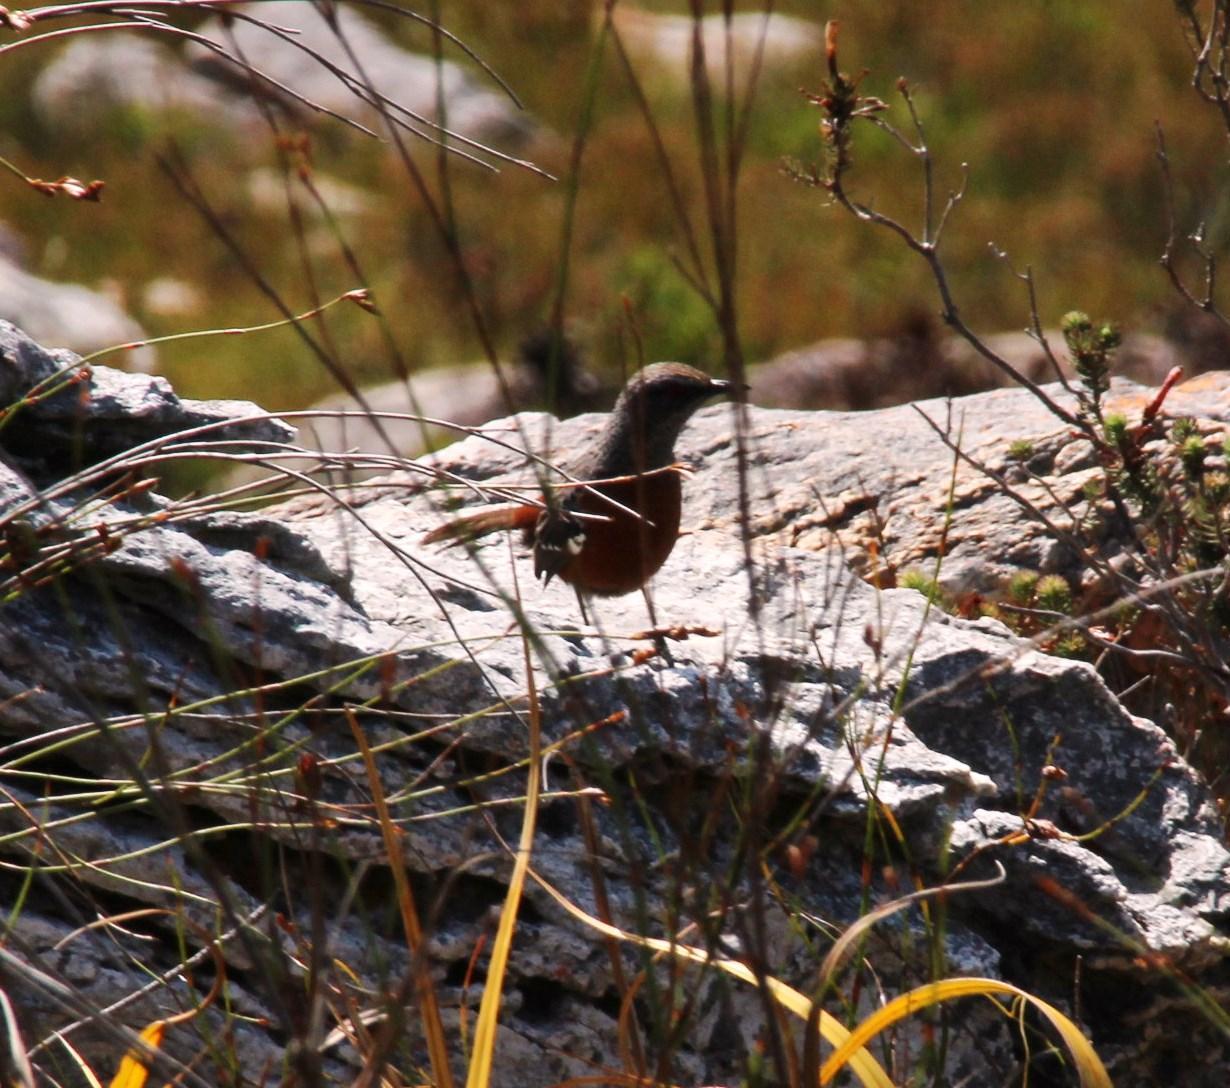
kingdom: Animalia
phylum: Chordata
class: Aves
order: Passeriformes
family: Chaetopidae
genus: Chaetops
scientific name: Chaetops frenatus
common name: Cape rockjumper
